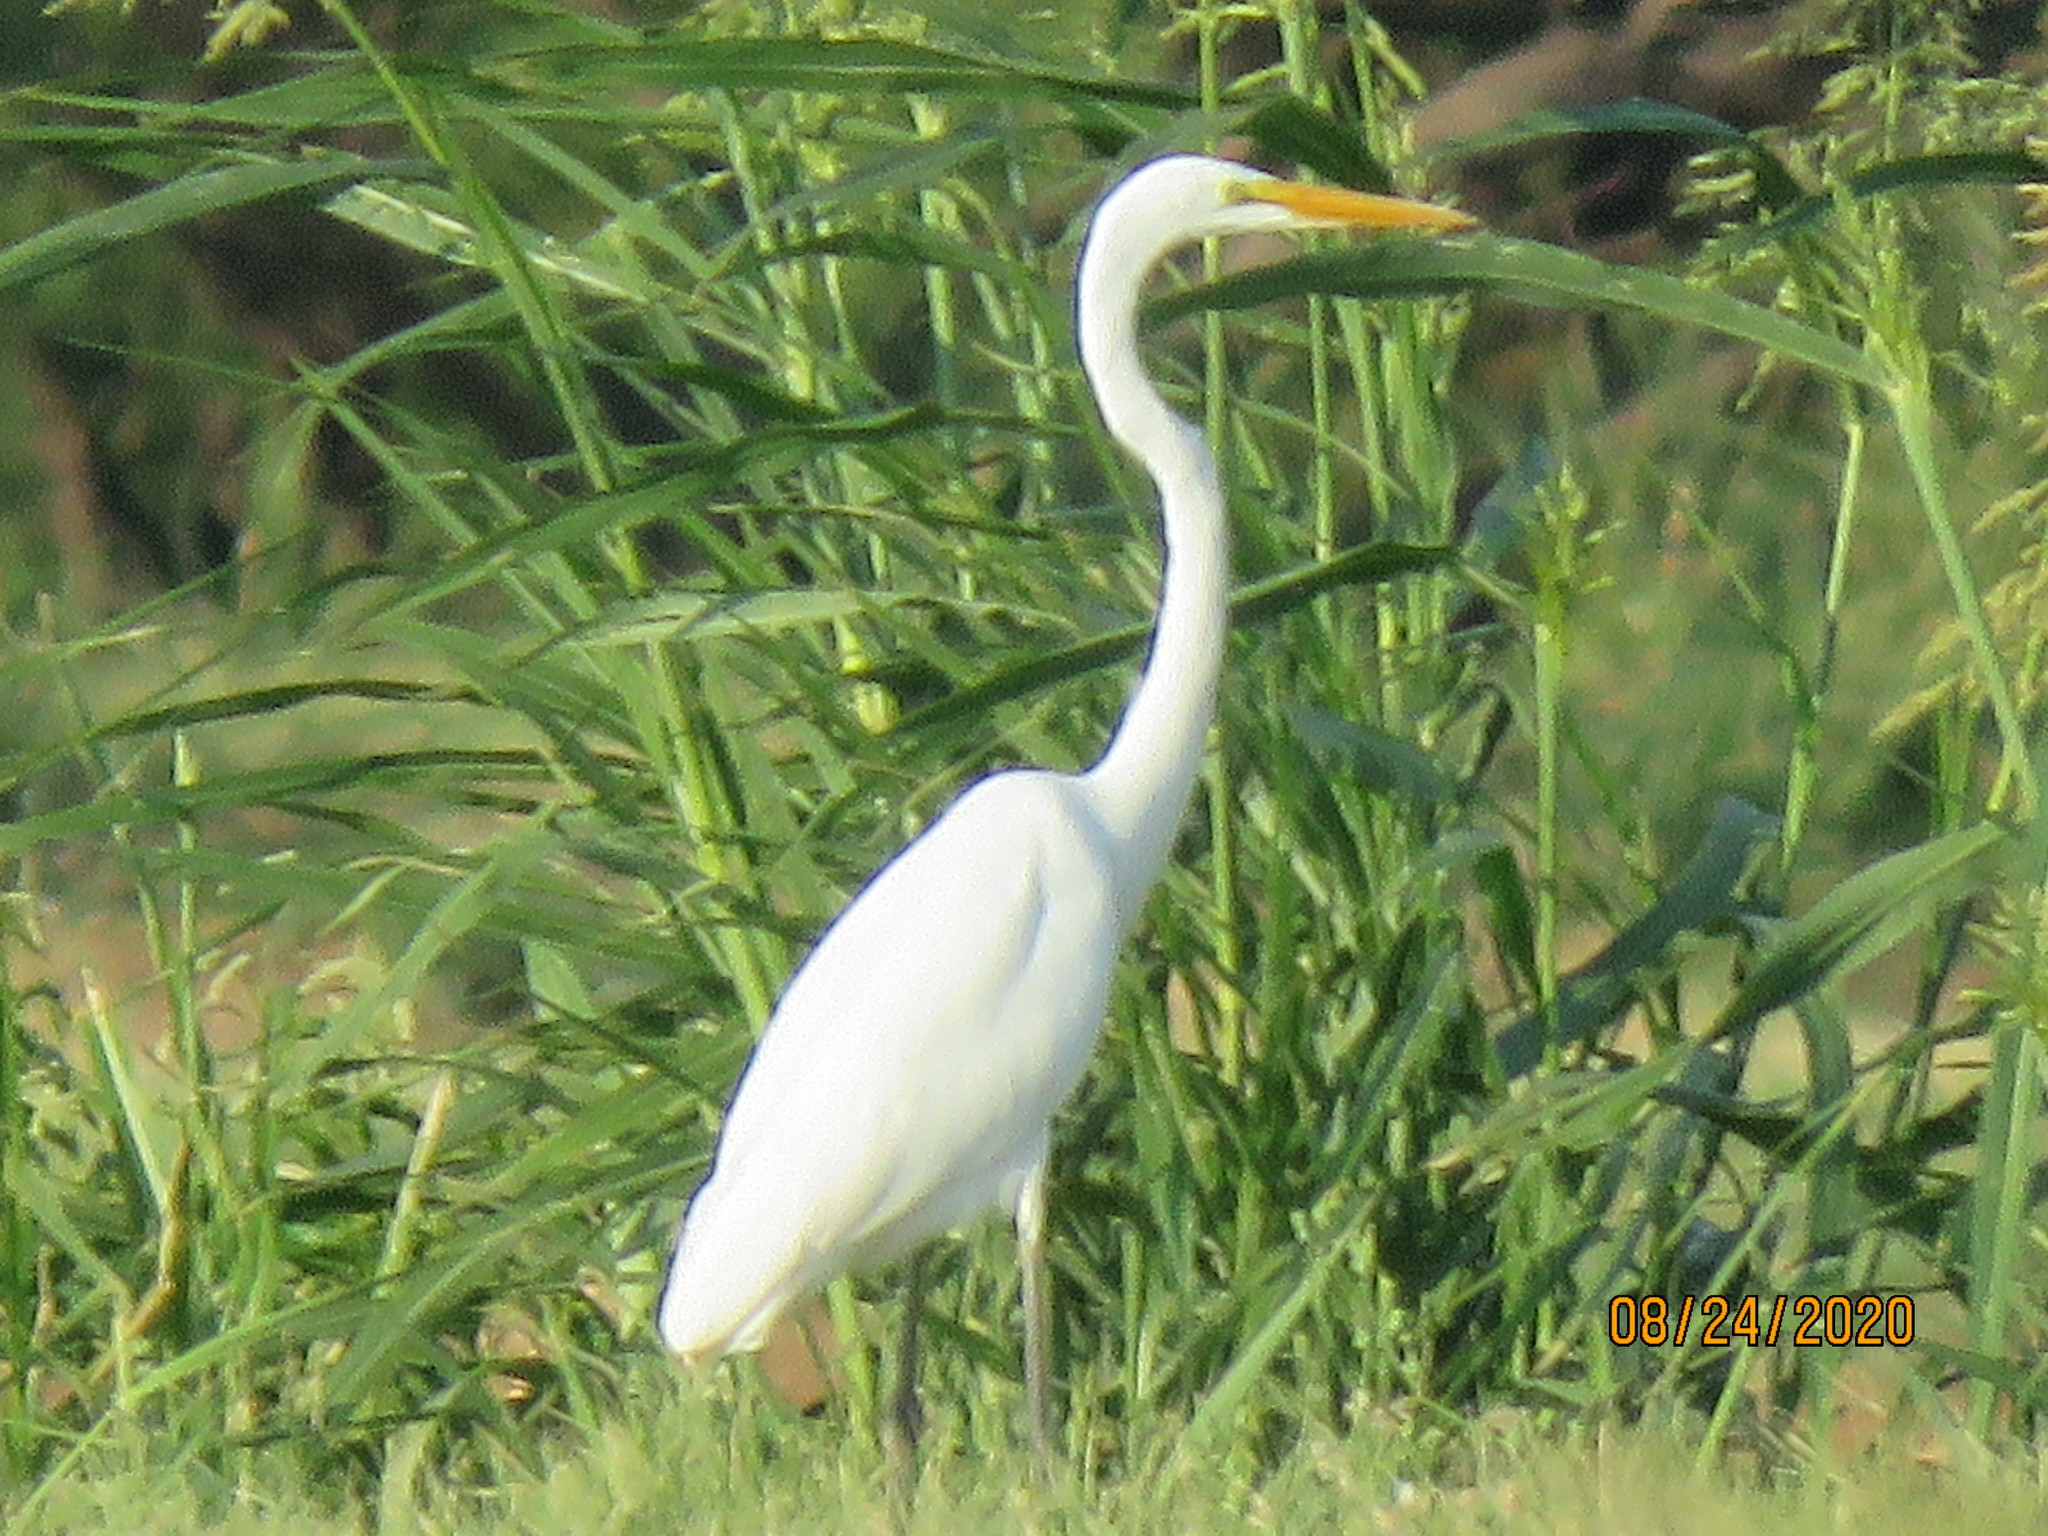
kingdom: Animalia
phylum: Chordata
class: Aves
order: Pelecaniformes
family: Ardeidae
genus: Ardea
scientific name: Ardea alba
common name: Great egret
